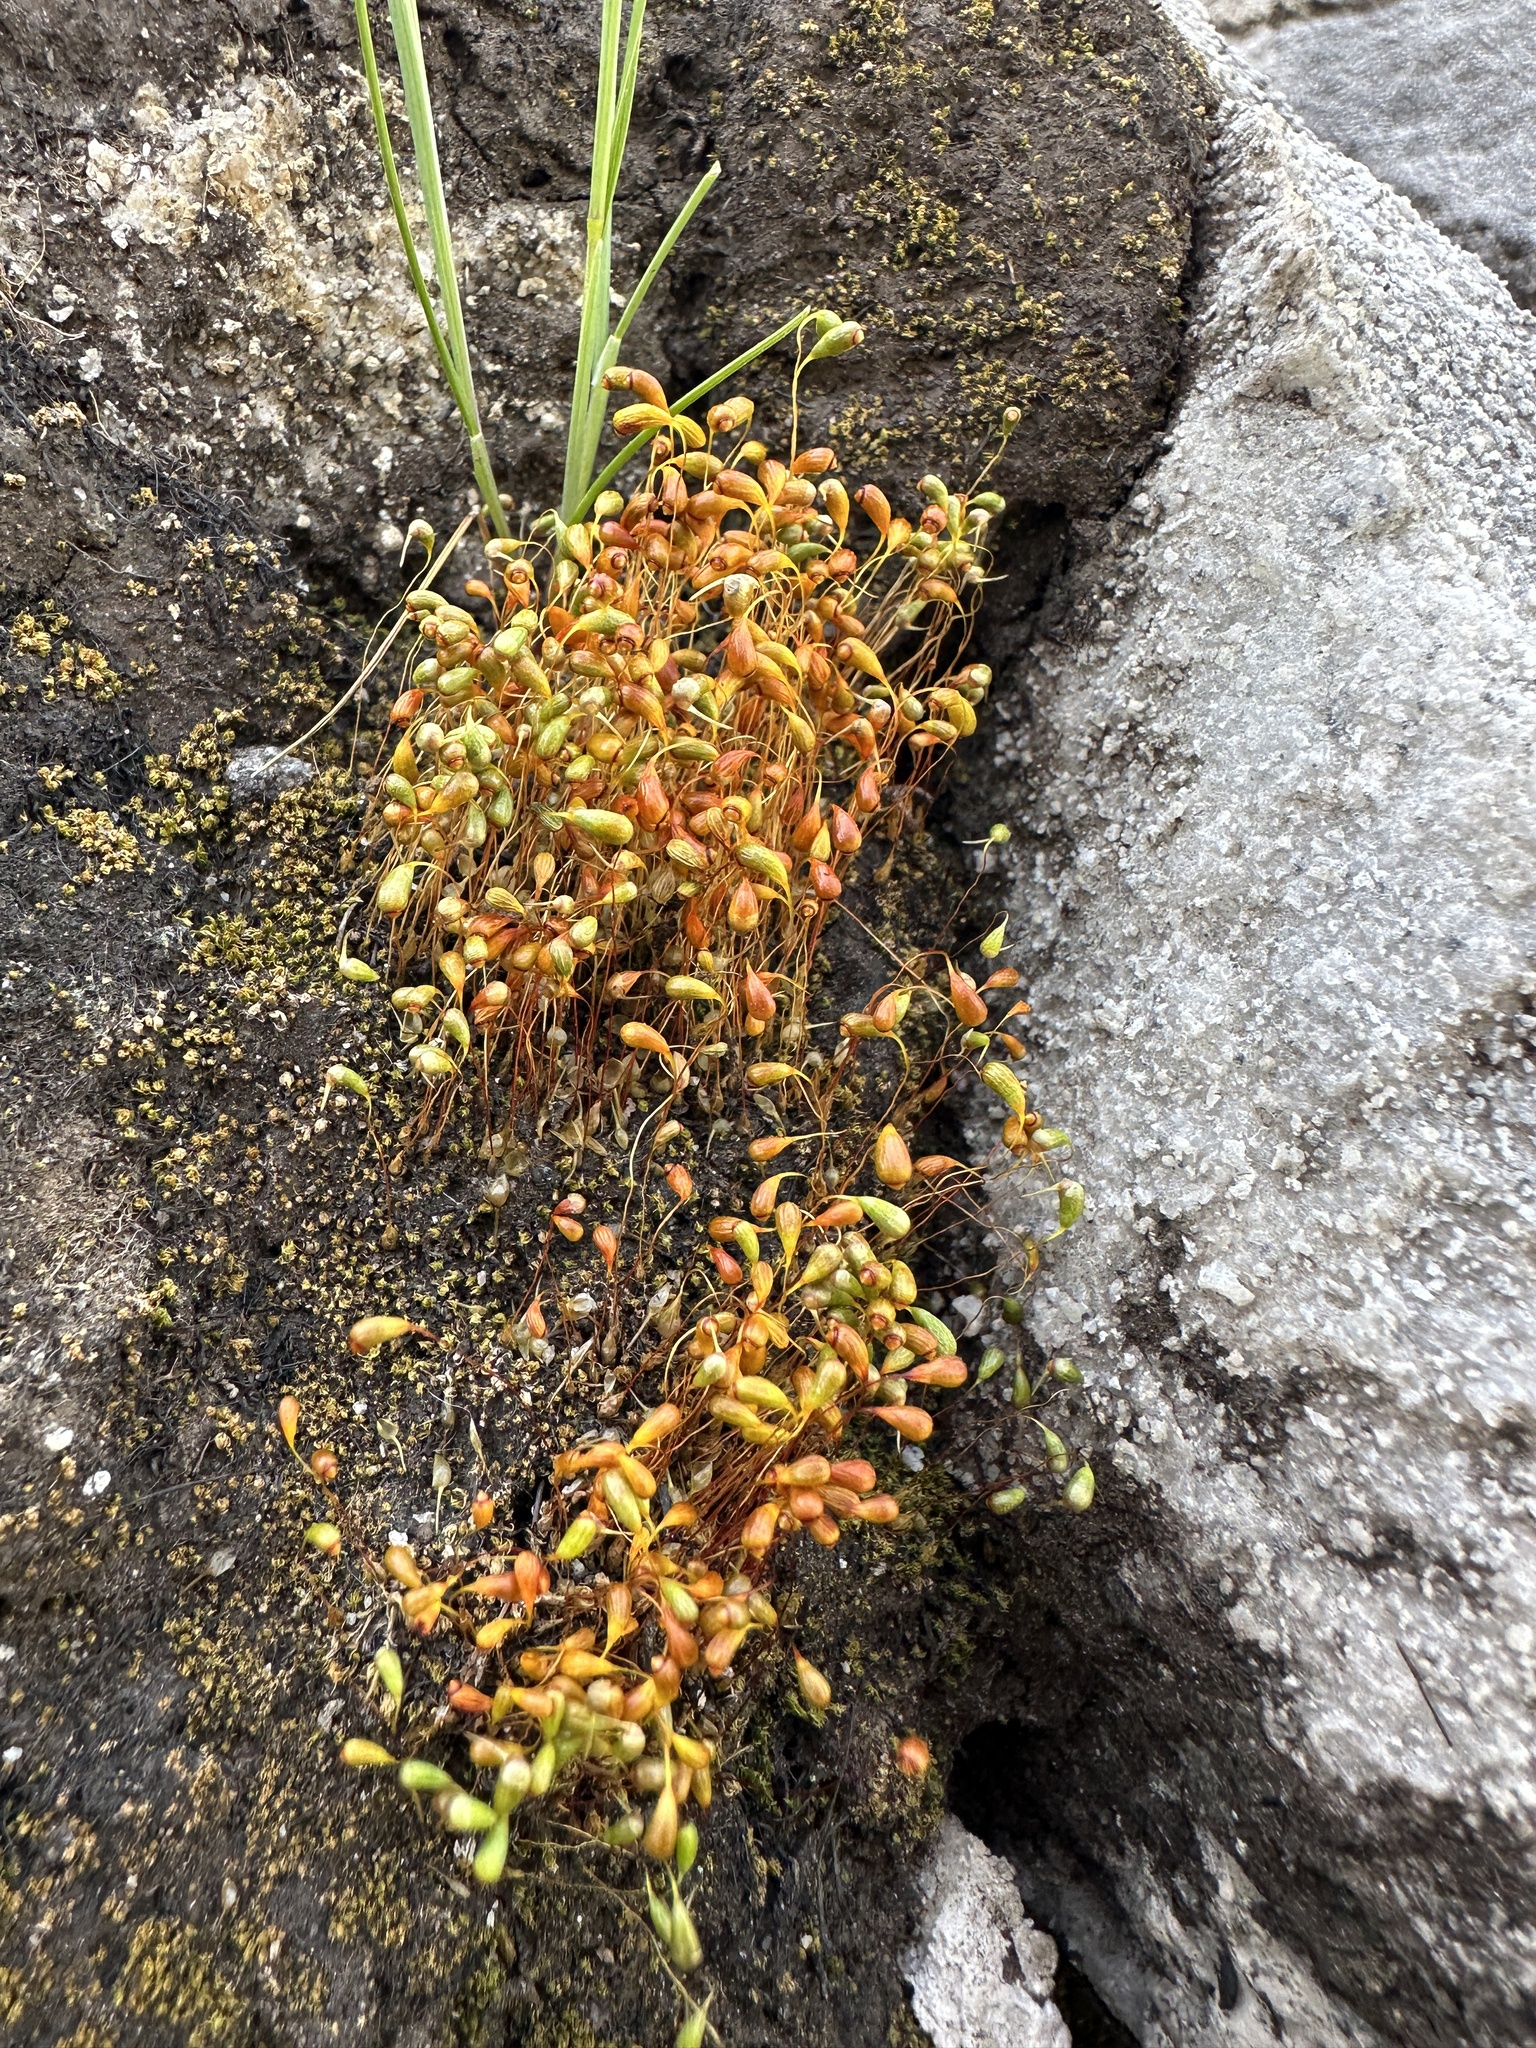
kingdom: Plantae
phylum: Bryophyta
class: Bryopsida
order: Funariales
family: Funariaceae
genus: Funaria
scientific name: Funaria hygrometrica
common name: Common cord moss
